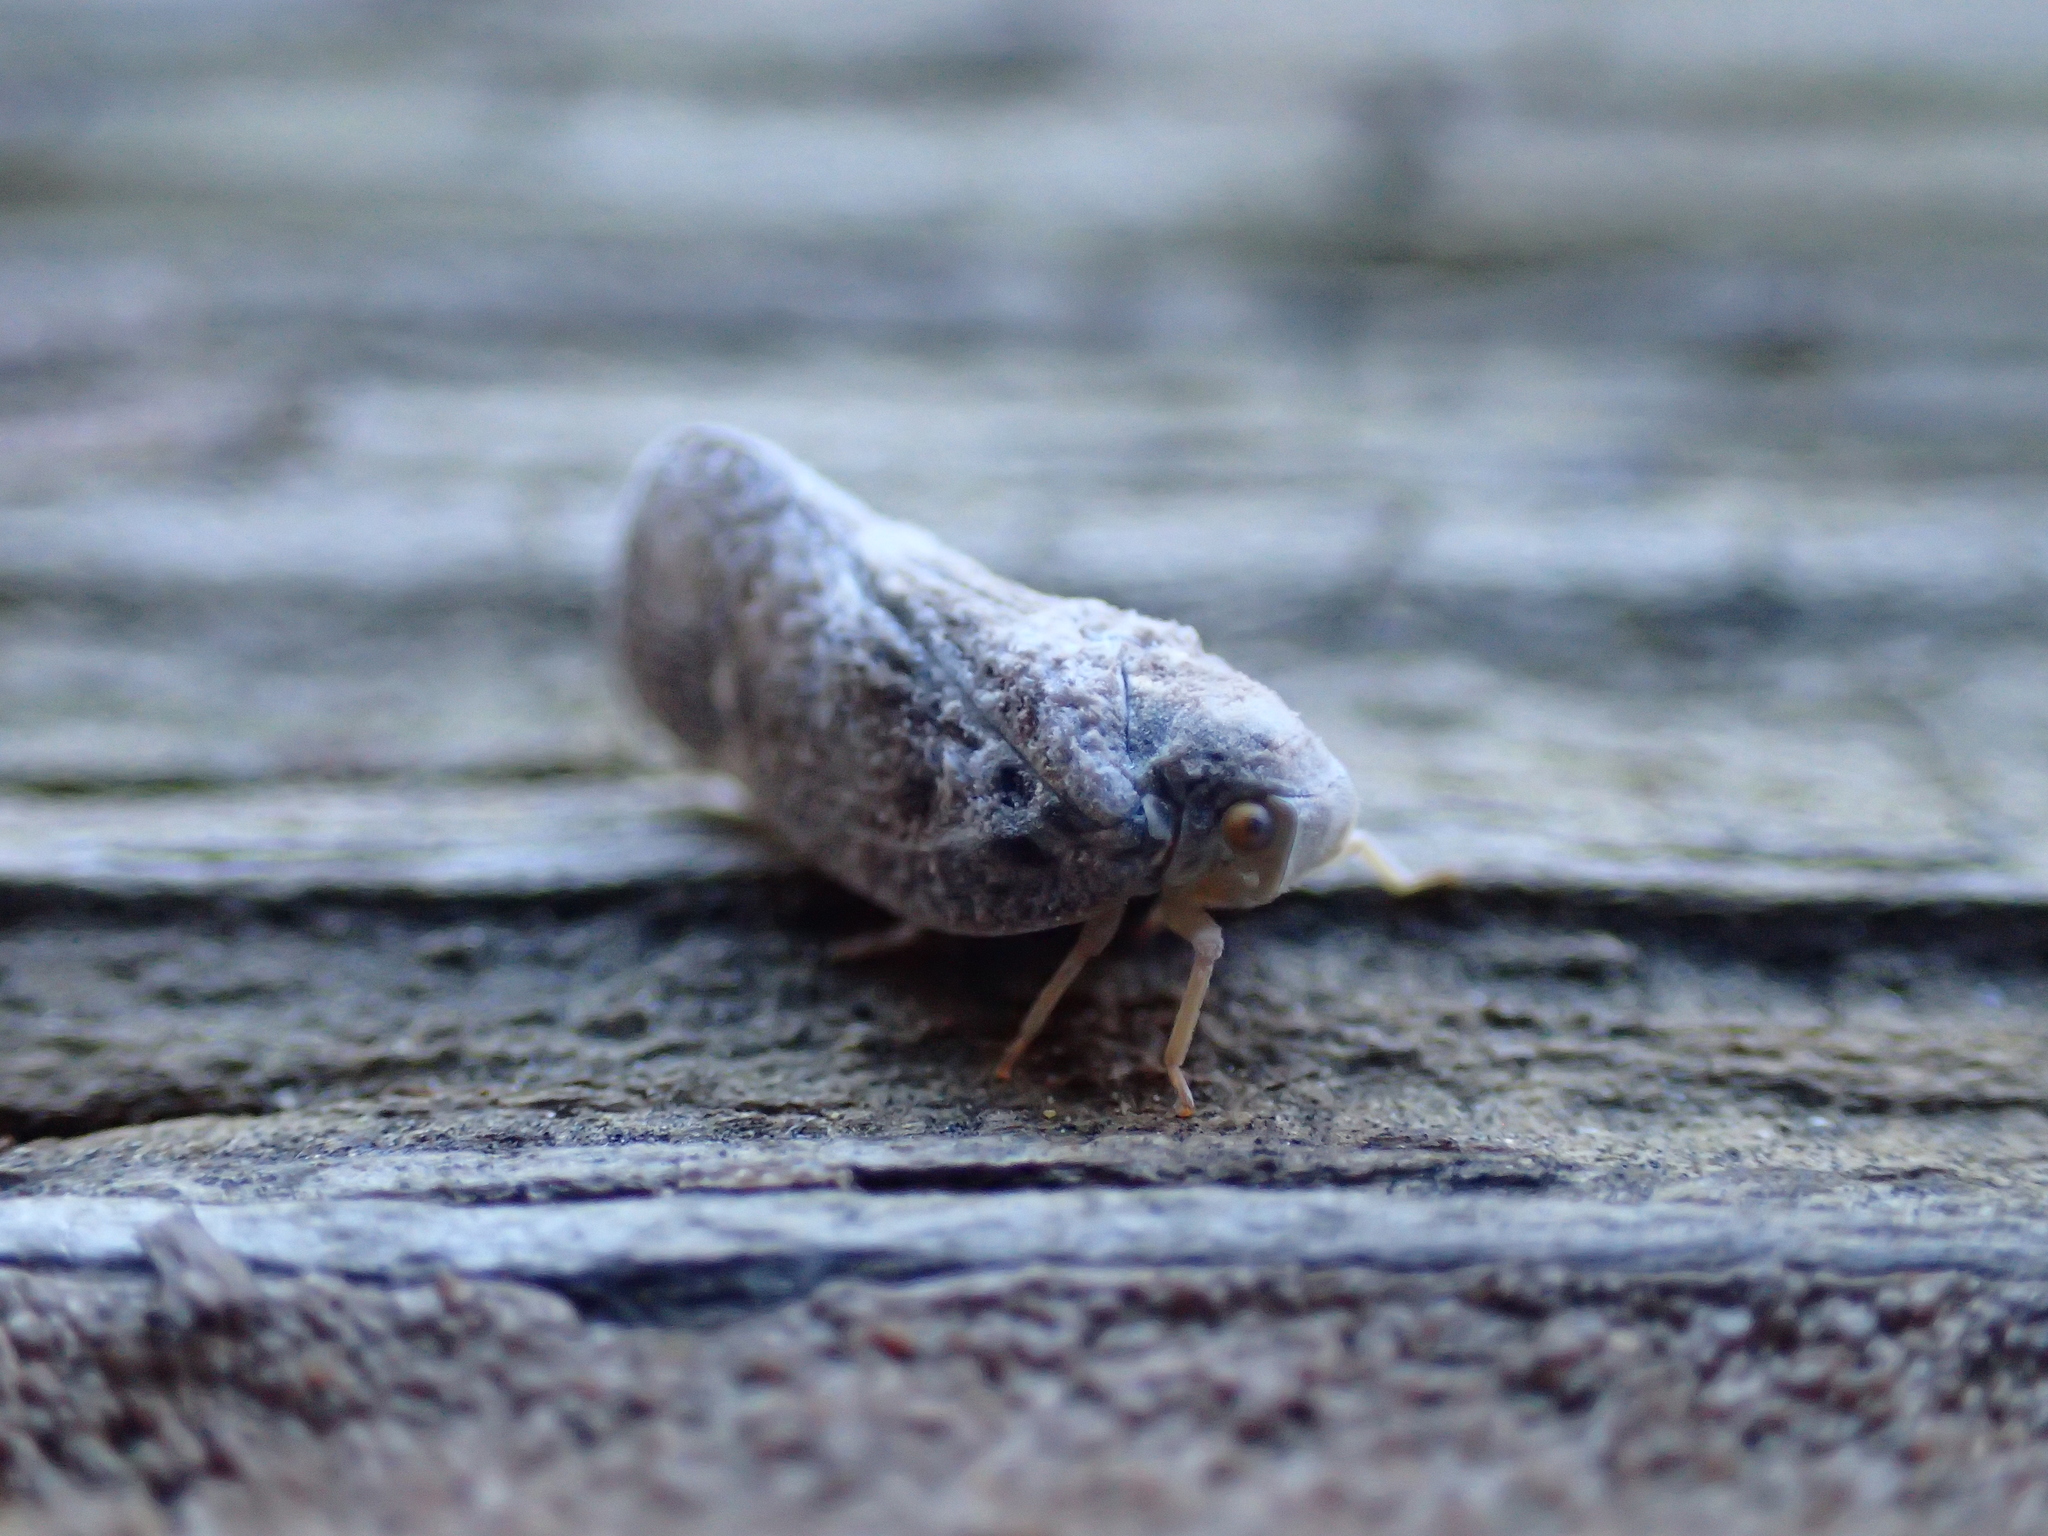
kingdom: Animalia
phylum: Arthropoda
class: Insecta
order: Hemiptera
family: Flatidae
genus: Metcalfa
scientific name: Metcalfa pruinosa
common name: Citrus flatid planthopper
